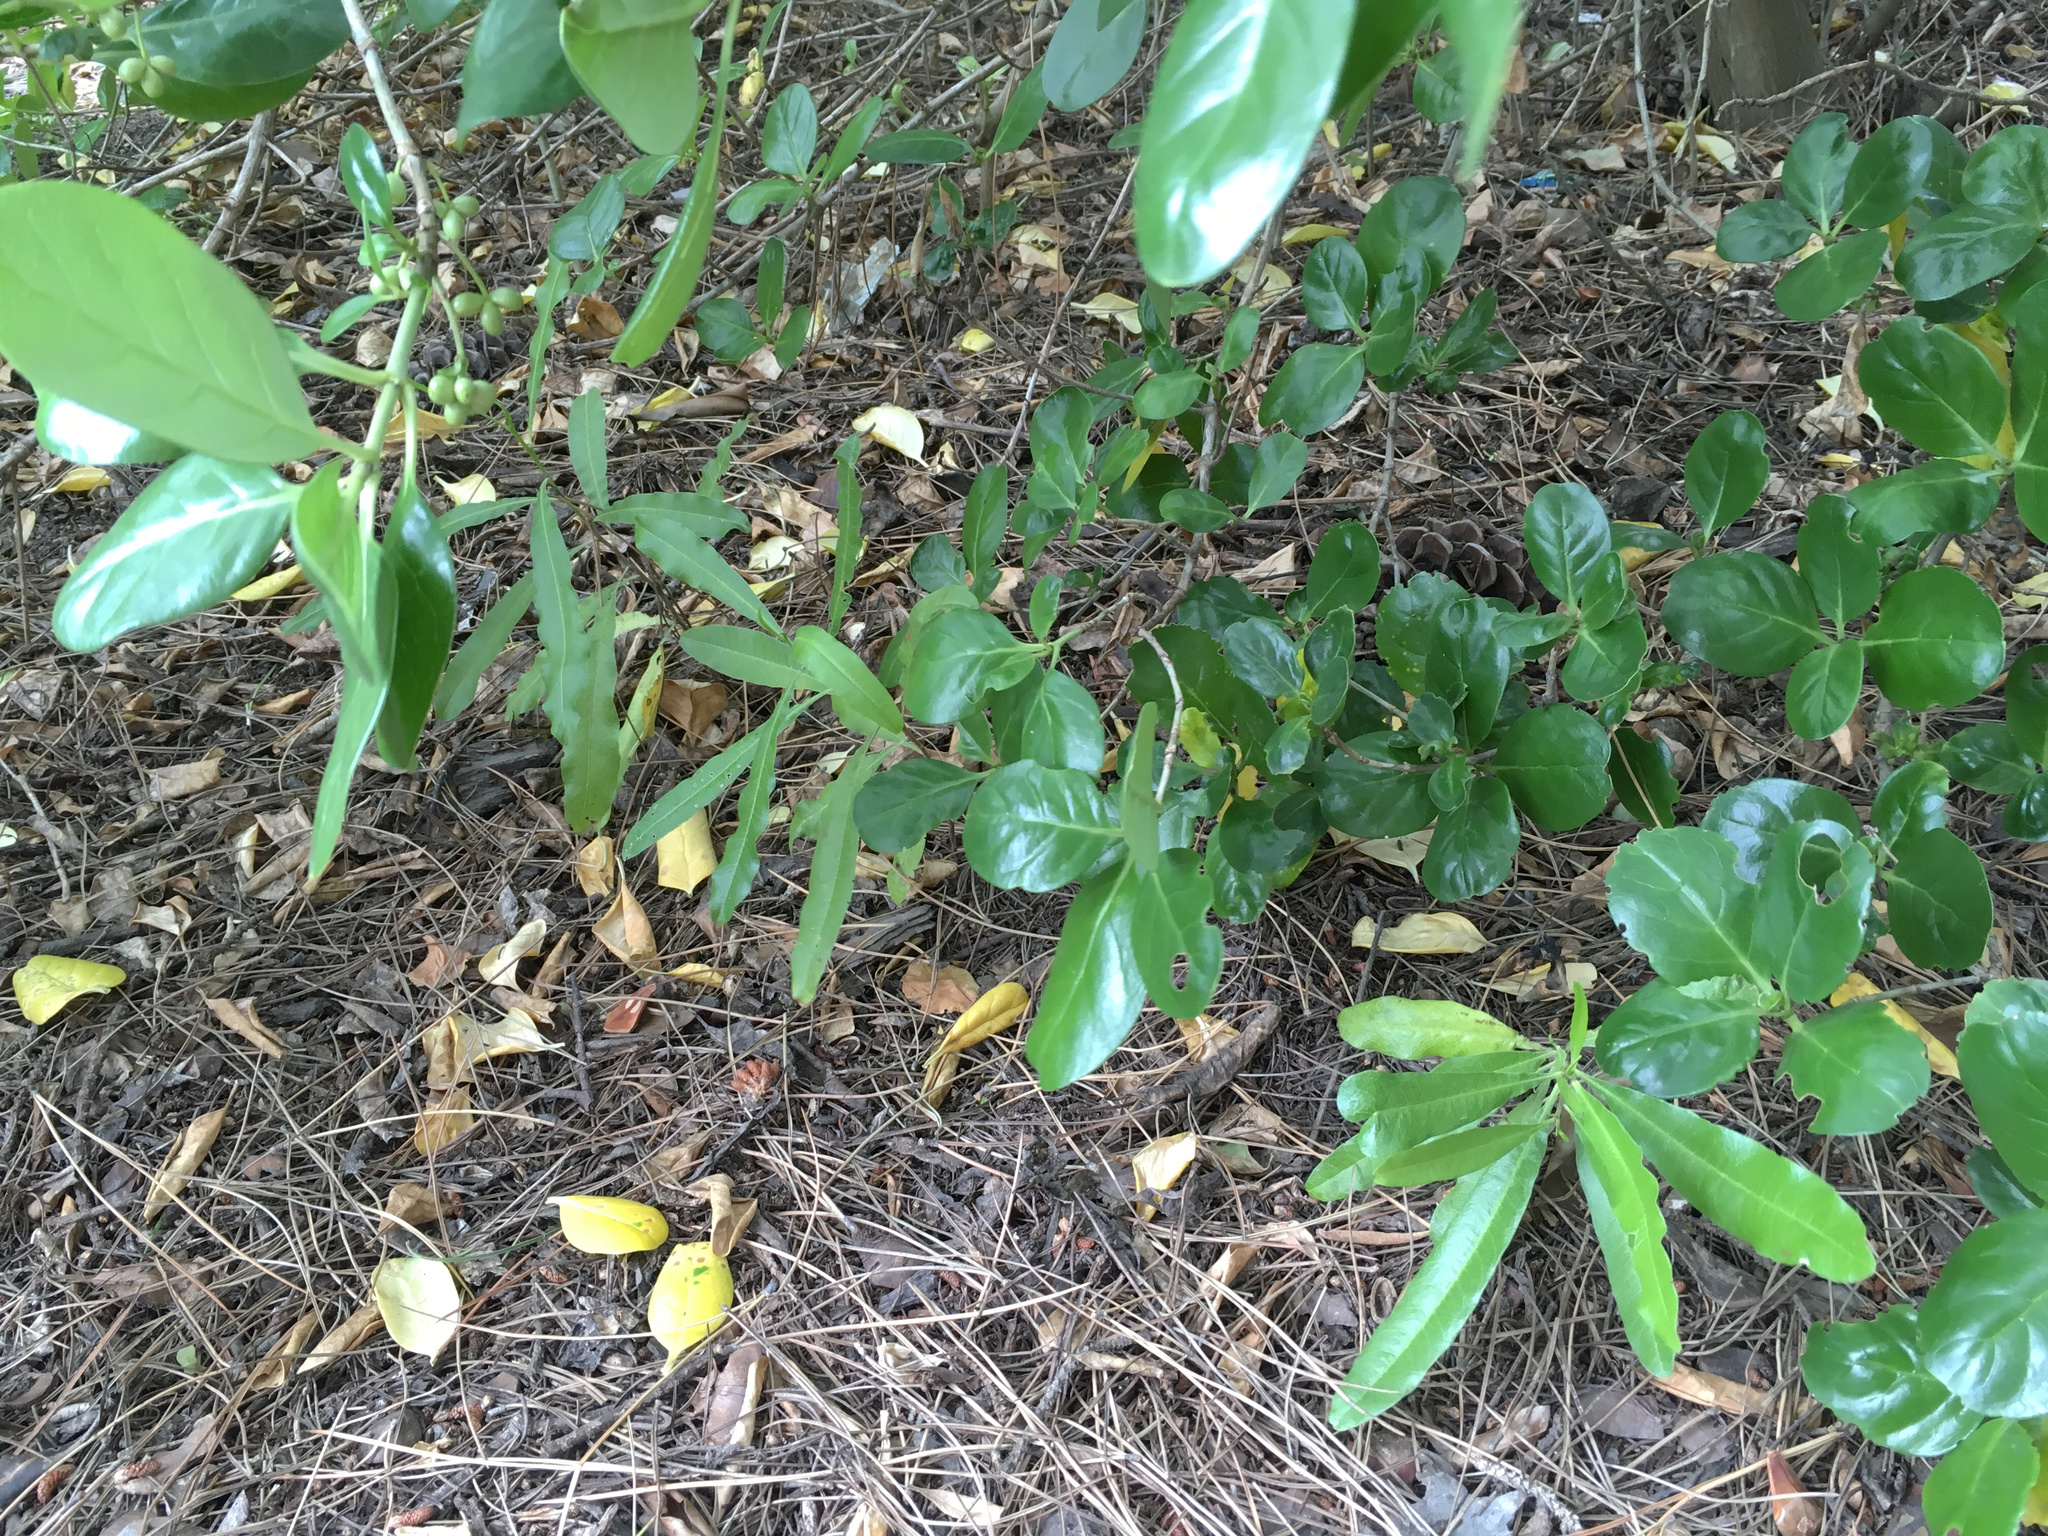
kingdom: Plantae
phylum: Tracheophyta
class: Magnoliopsida
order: Sapindales
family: Sapindaceae
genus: Dodonaea
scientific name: Dodonaea viscosa
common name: Hopbush
